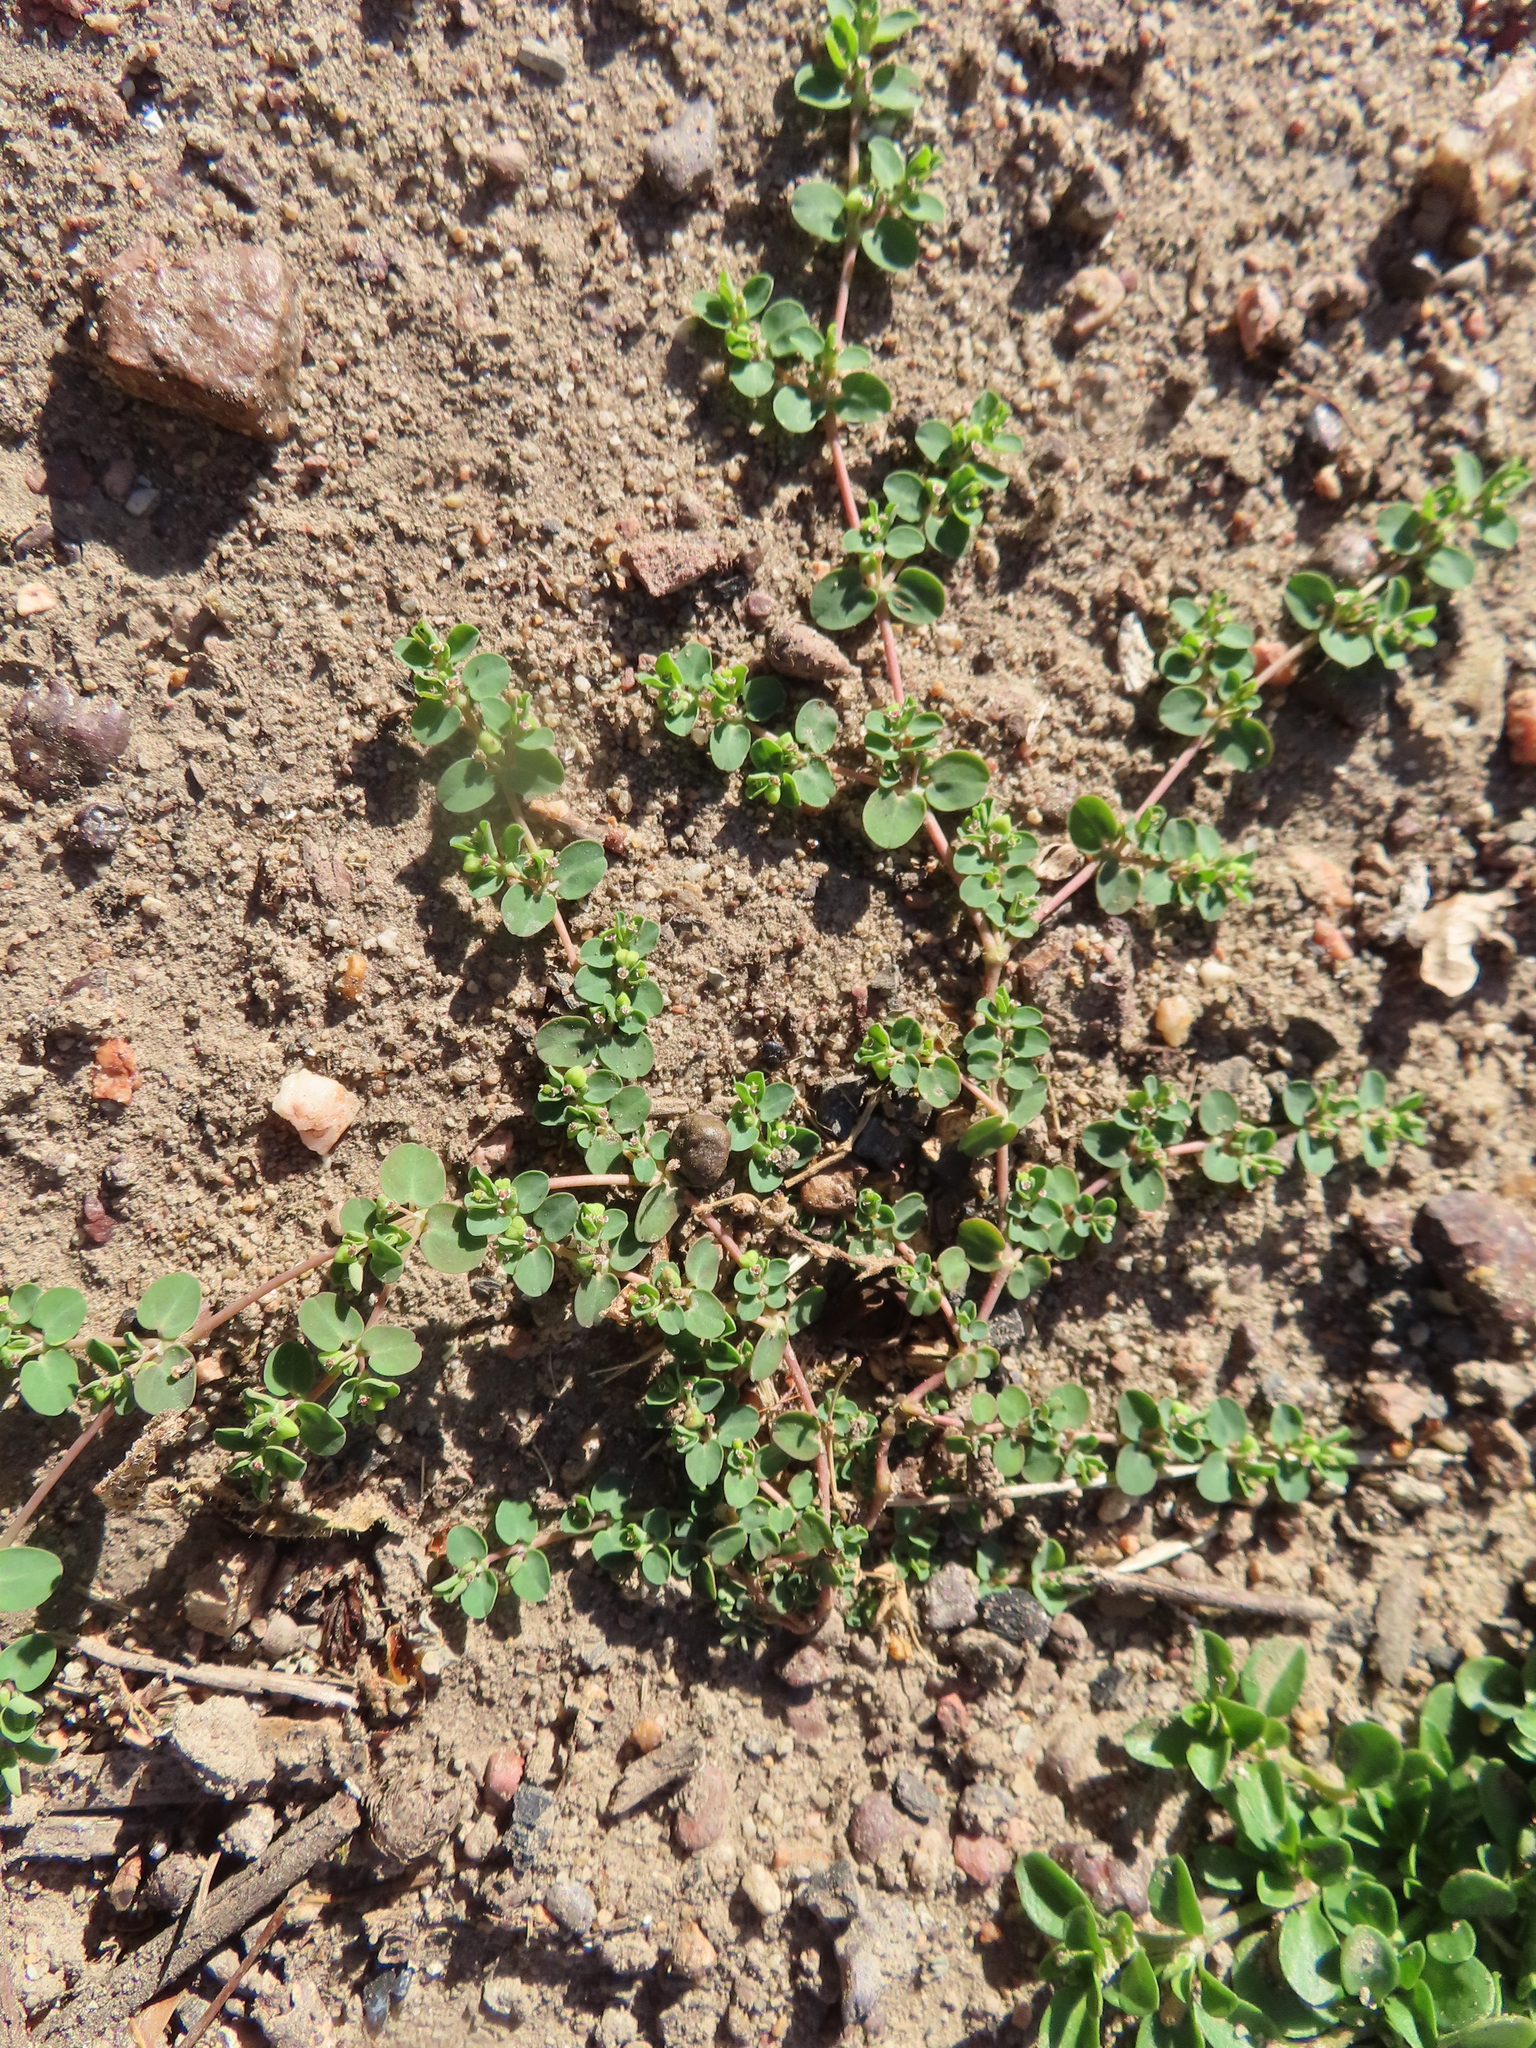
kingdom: Plantae
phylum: Tracheophyta
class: Magnoliopsida
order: Malpighiales
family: Euphorbiaceae
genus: Euphorbia
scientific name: Euphorbia serpens
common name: Matted sandmat
